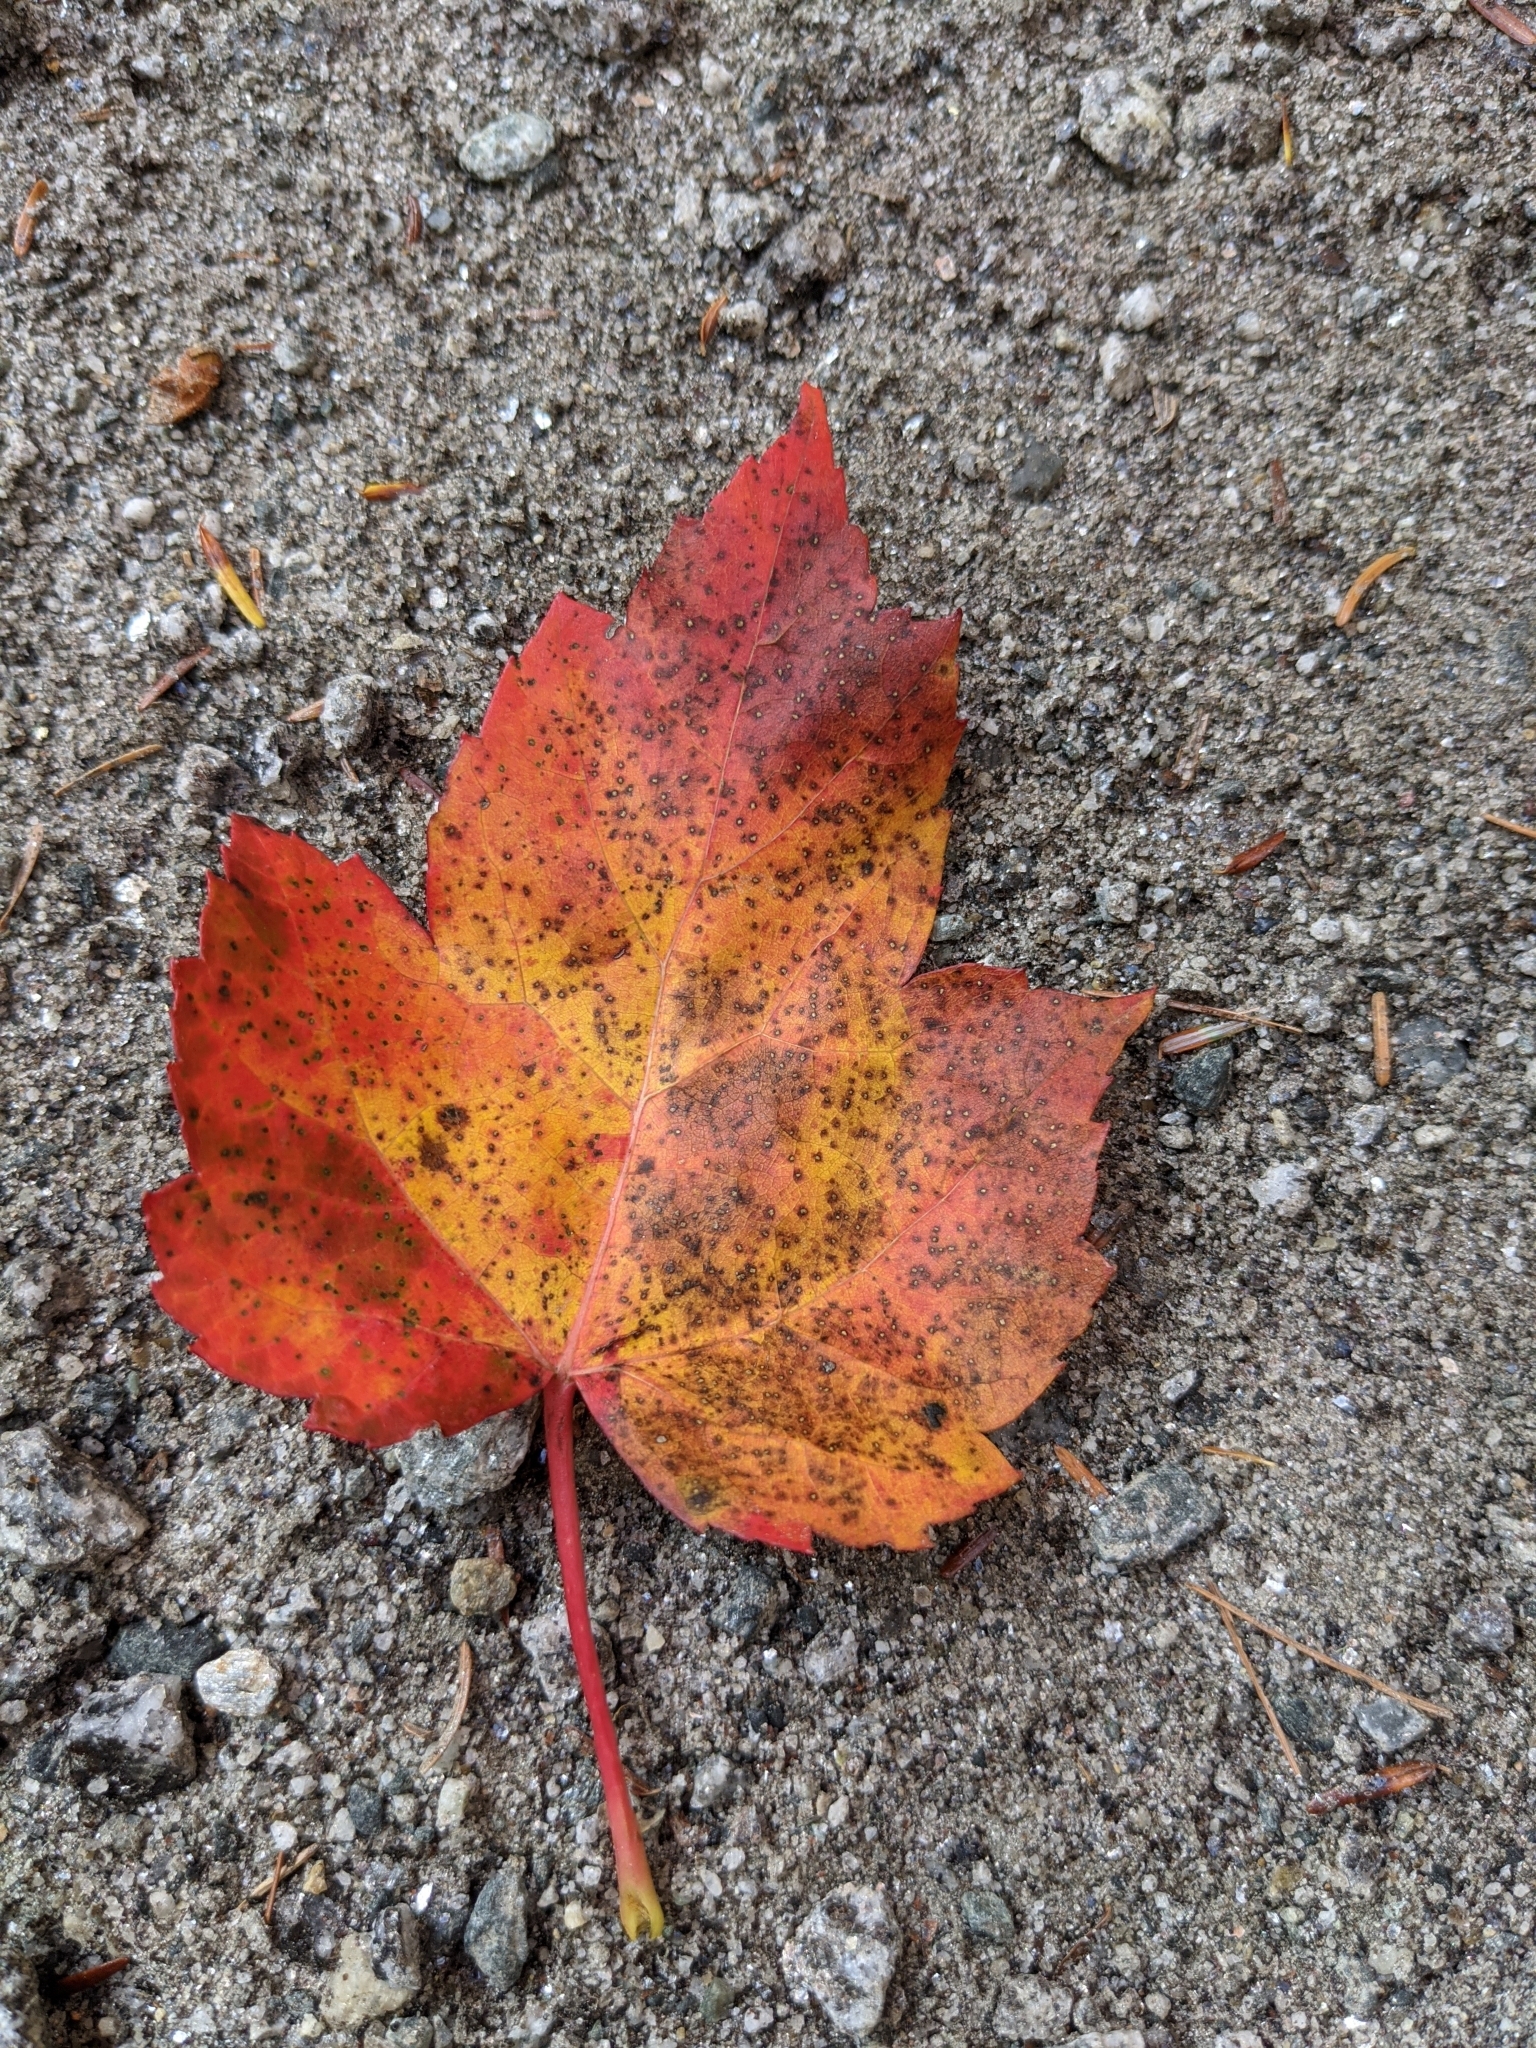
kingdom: Plantae
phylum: Tracheophyta
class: Magnoliopsida
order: Sapindales
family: Sapindaceae
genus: Acer
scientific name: Acer rubrum
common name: Red maple
